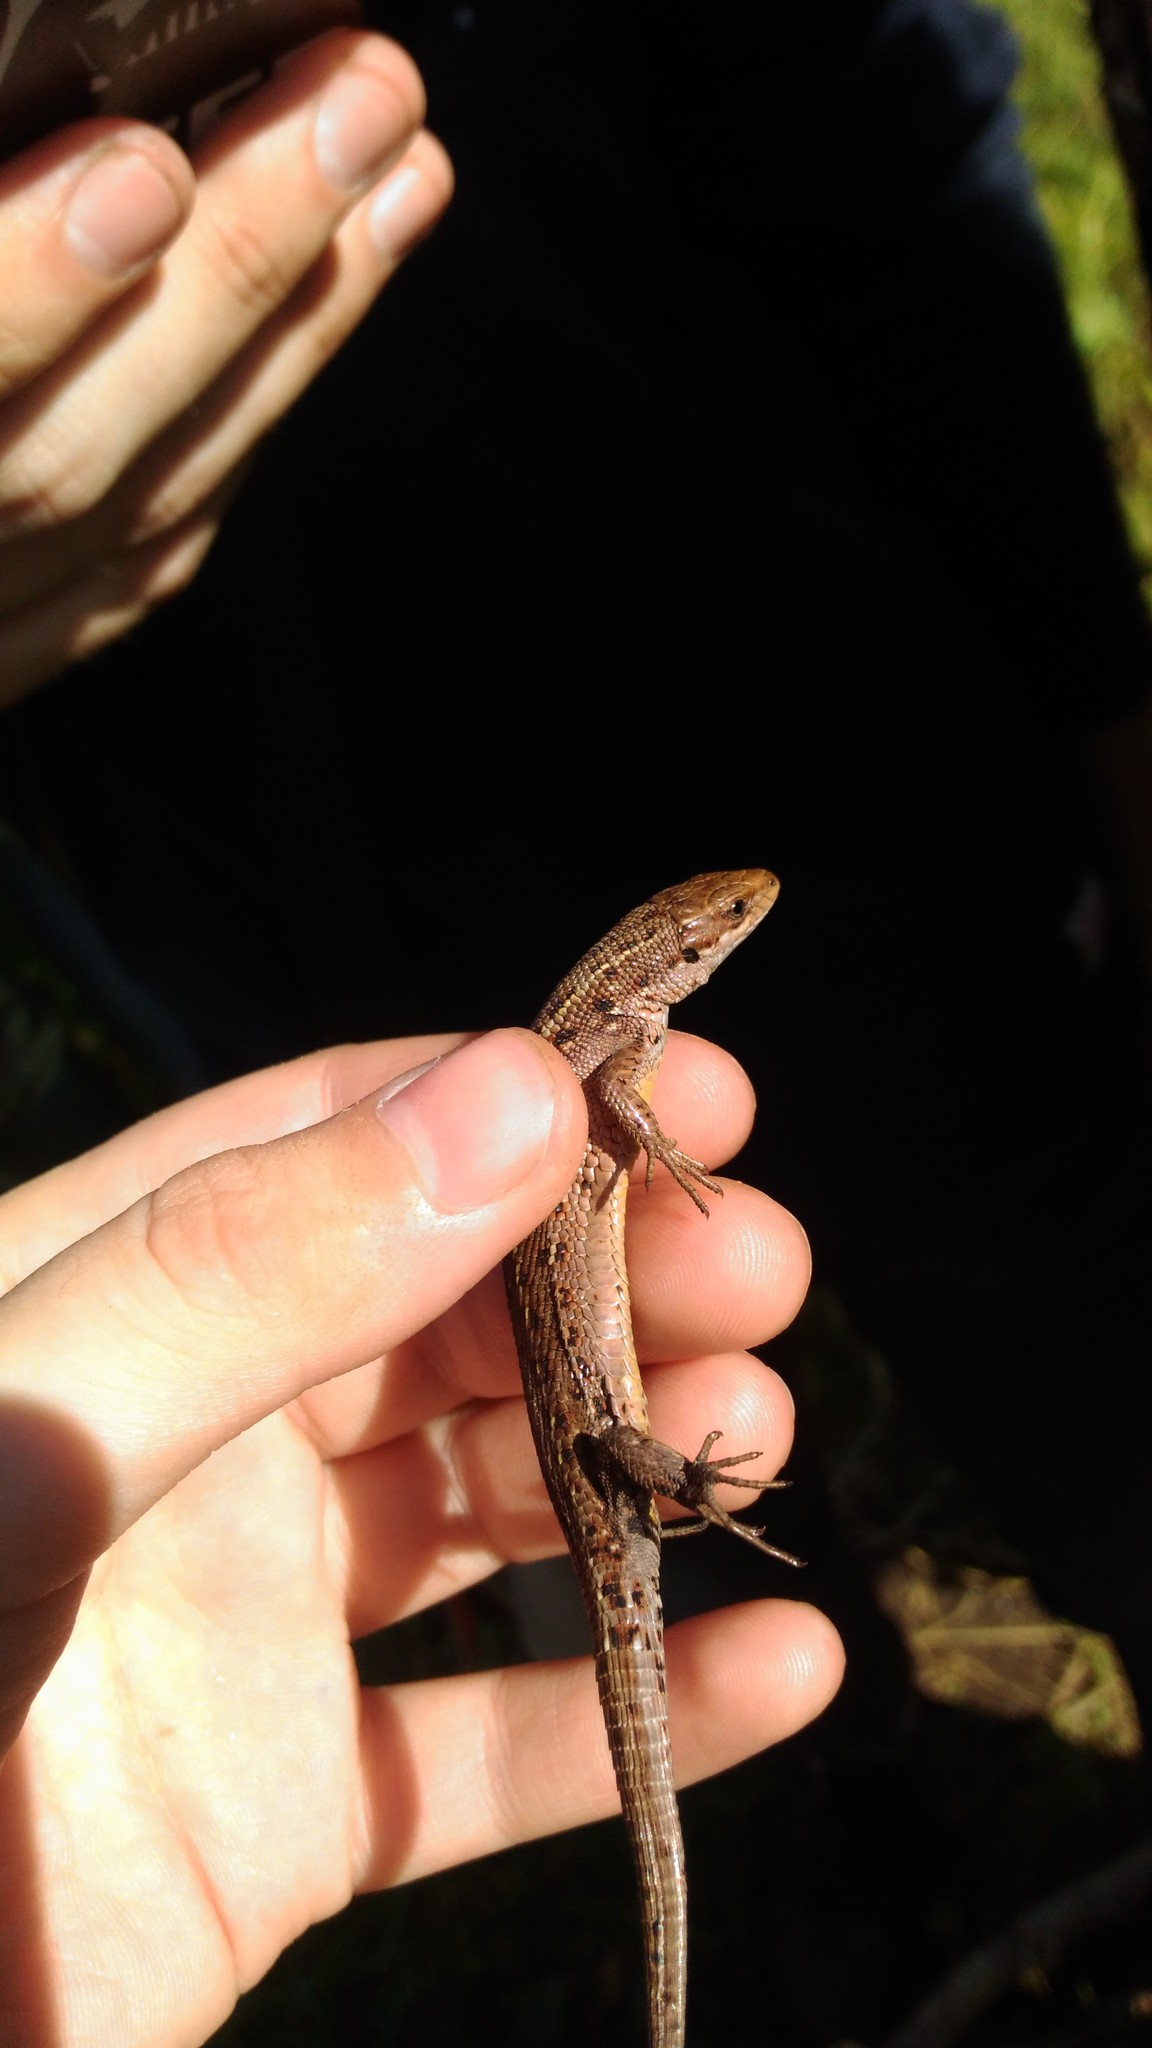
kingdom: Animalia
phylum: Chordata
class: Squamata
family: Lacertidae
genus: Zootoca
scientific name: Zootoca vivipara
